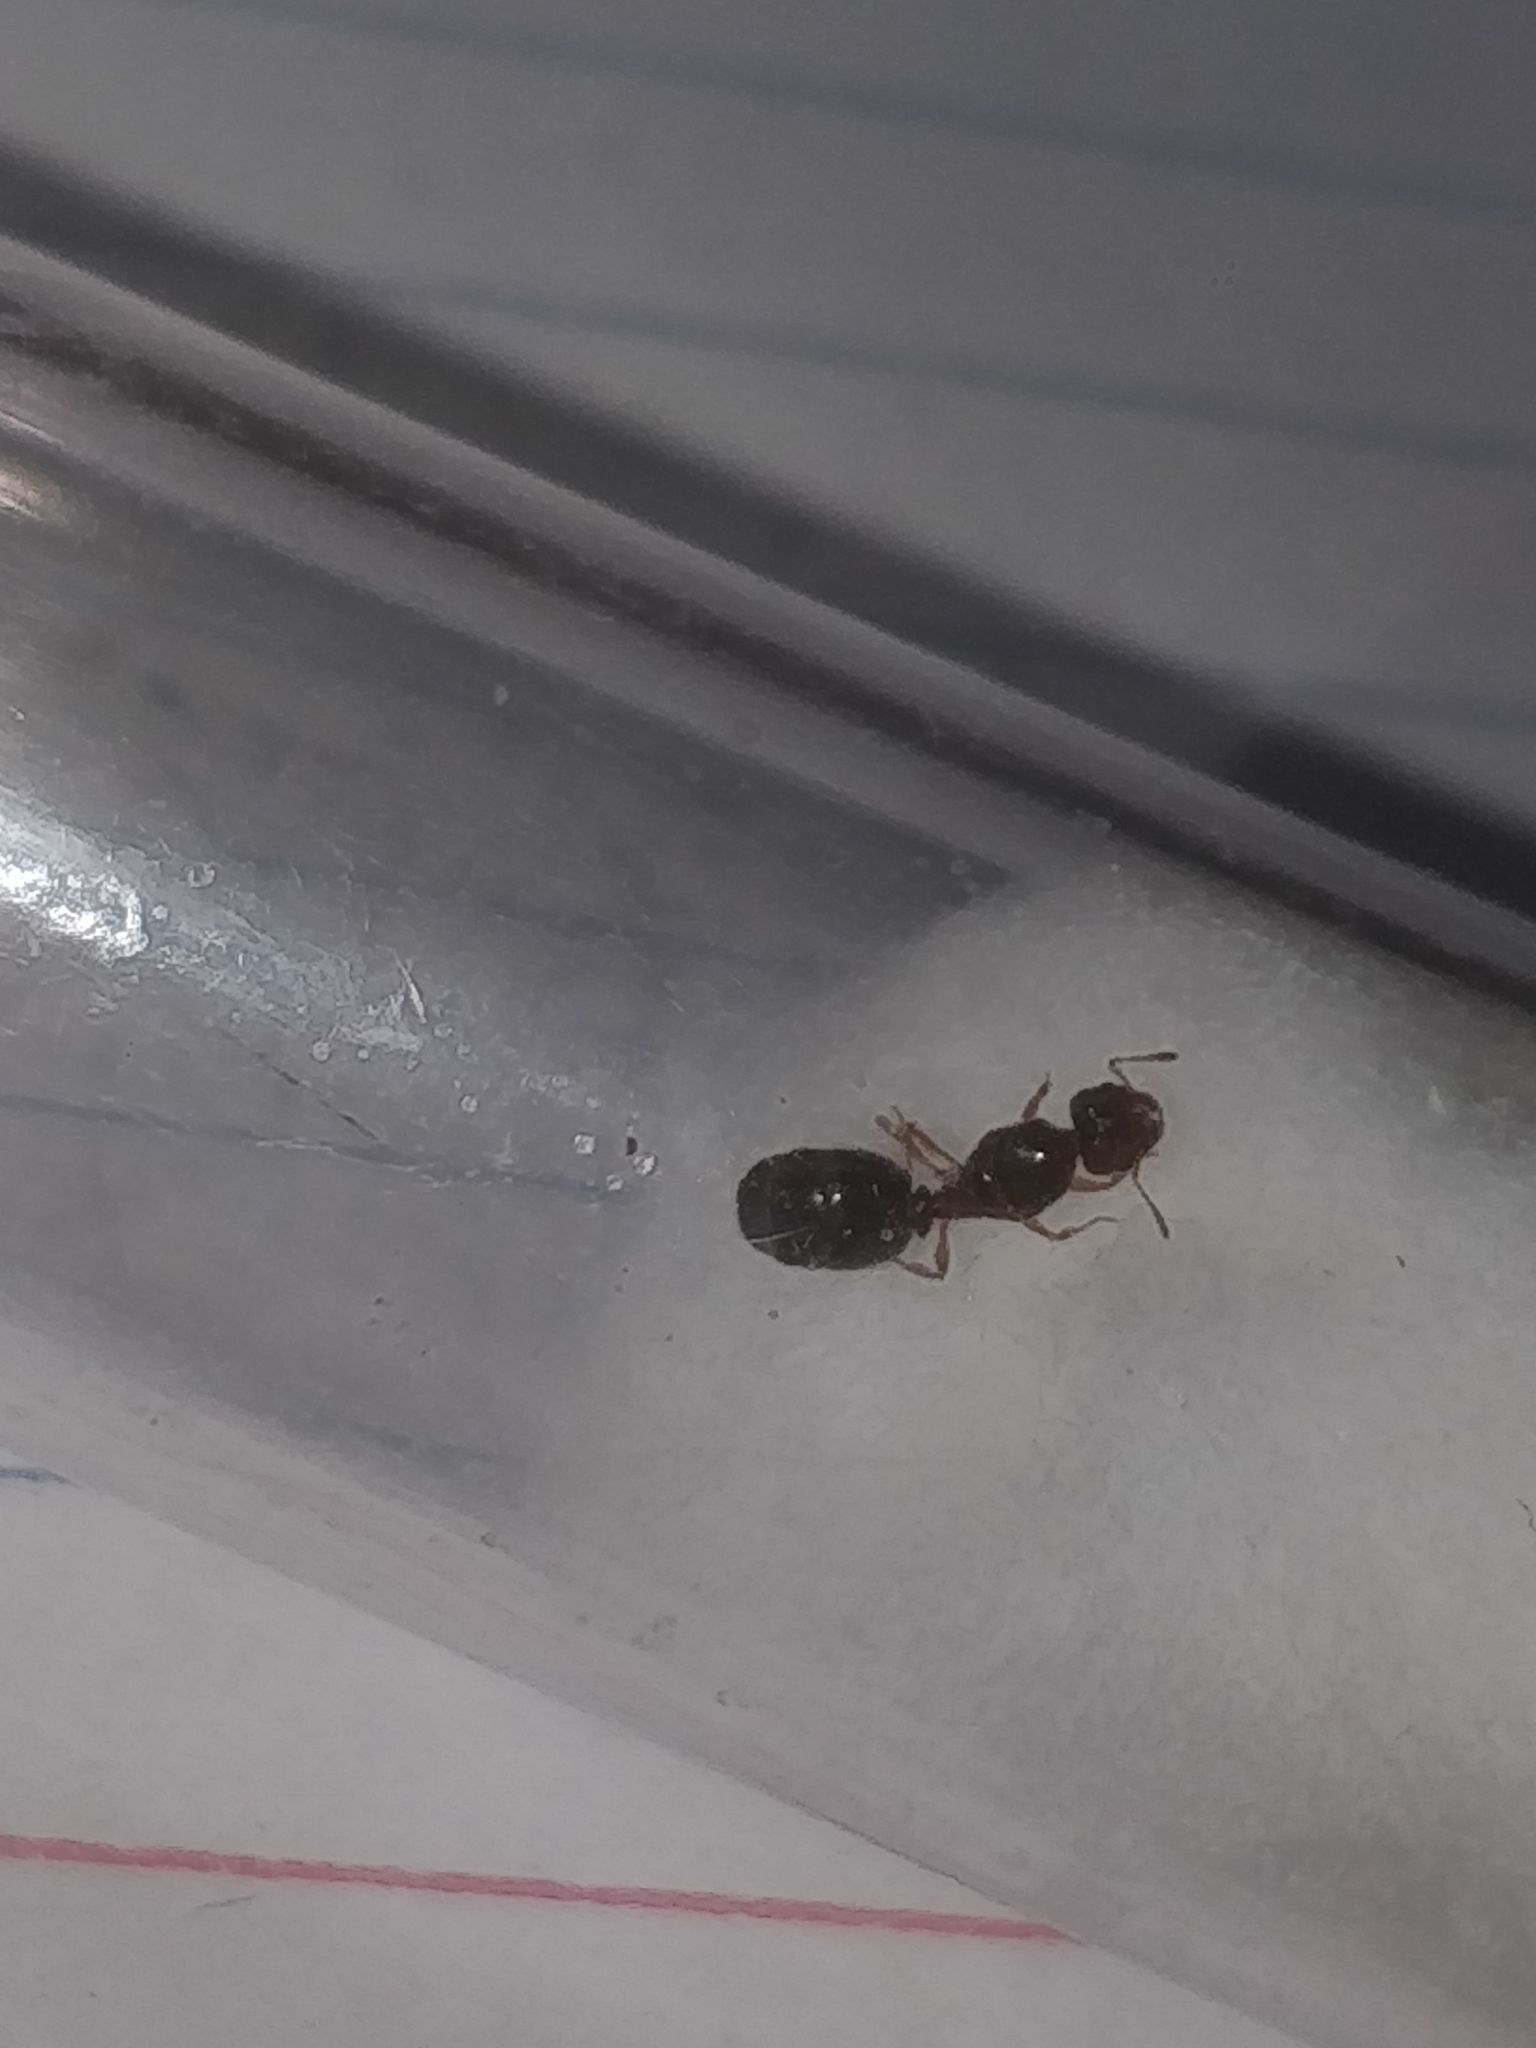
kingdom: Animalia
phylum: Arthropoda
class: Insecta
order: Hymenoptera
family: Formicidae
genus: Pheidole
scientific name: Pheidole bicarinata
